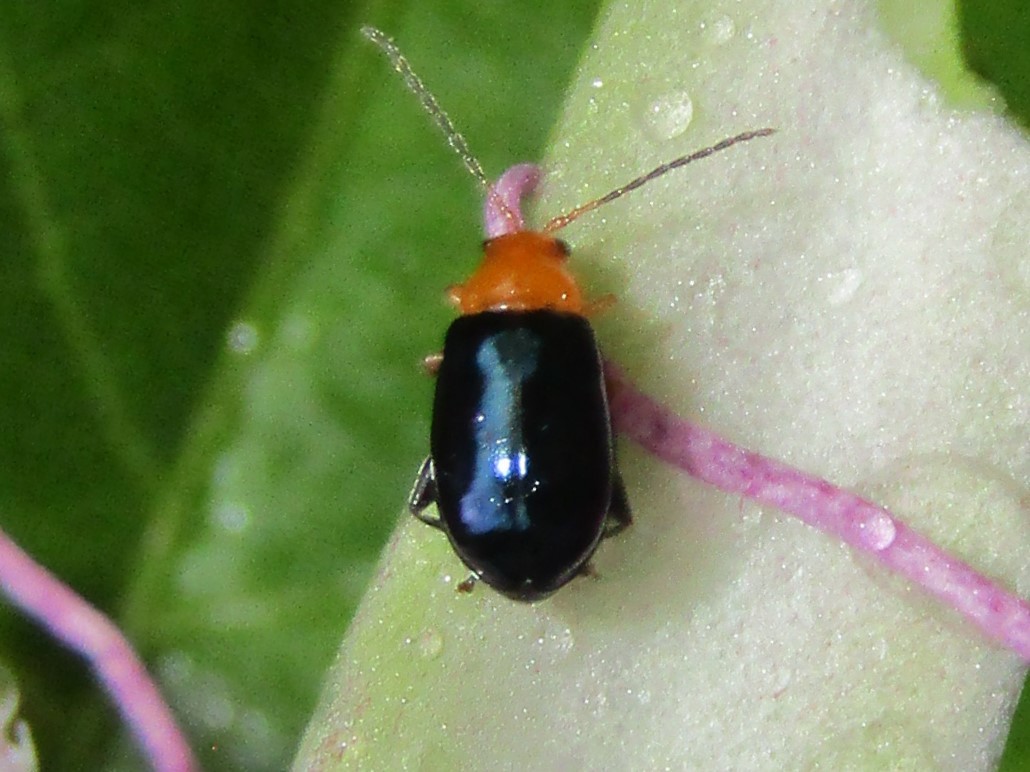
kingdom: Animalia
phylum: Arthropoda
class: Insecta
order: Coleoptera
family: Chrysomelidae
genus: Parchicola
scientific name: Parchicola iris
